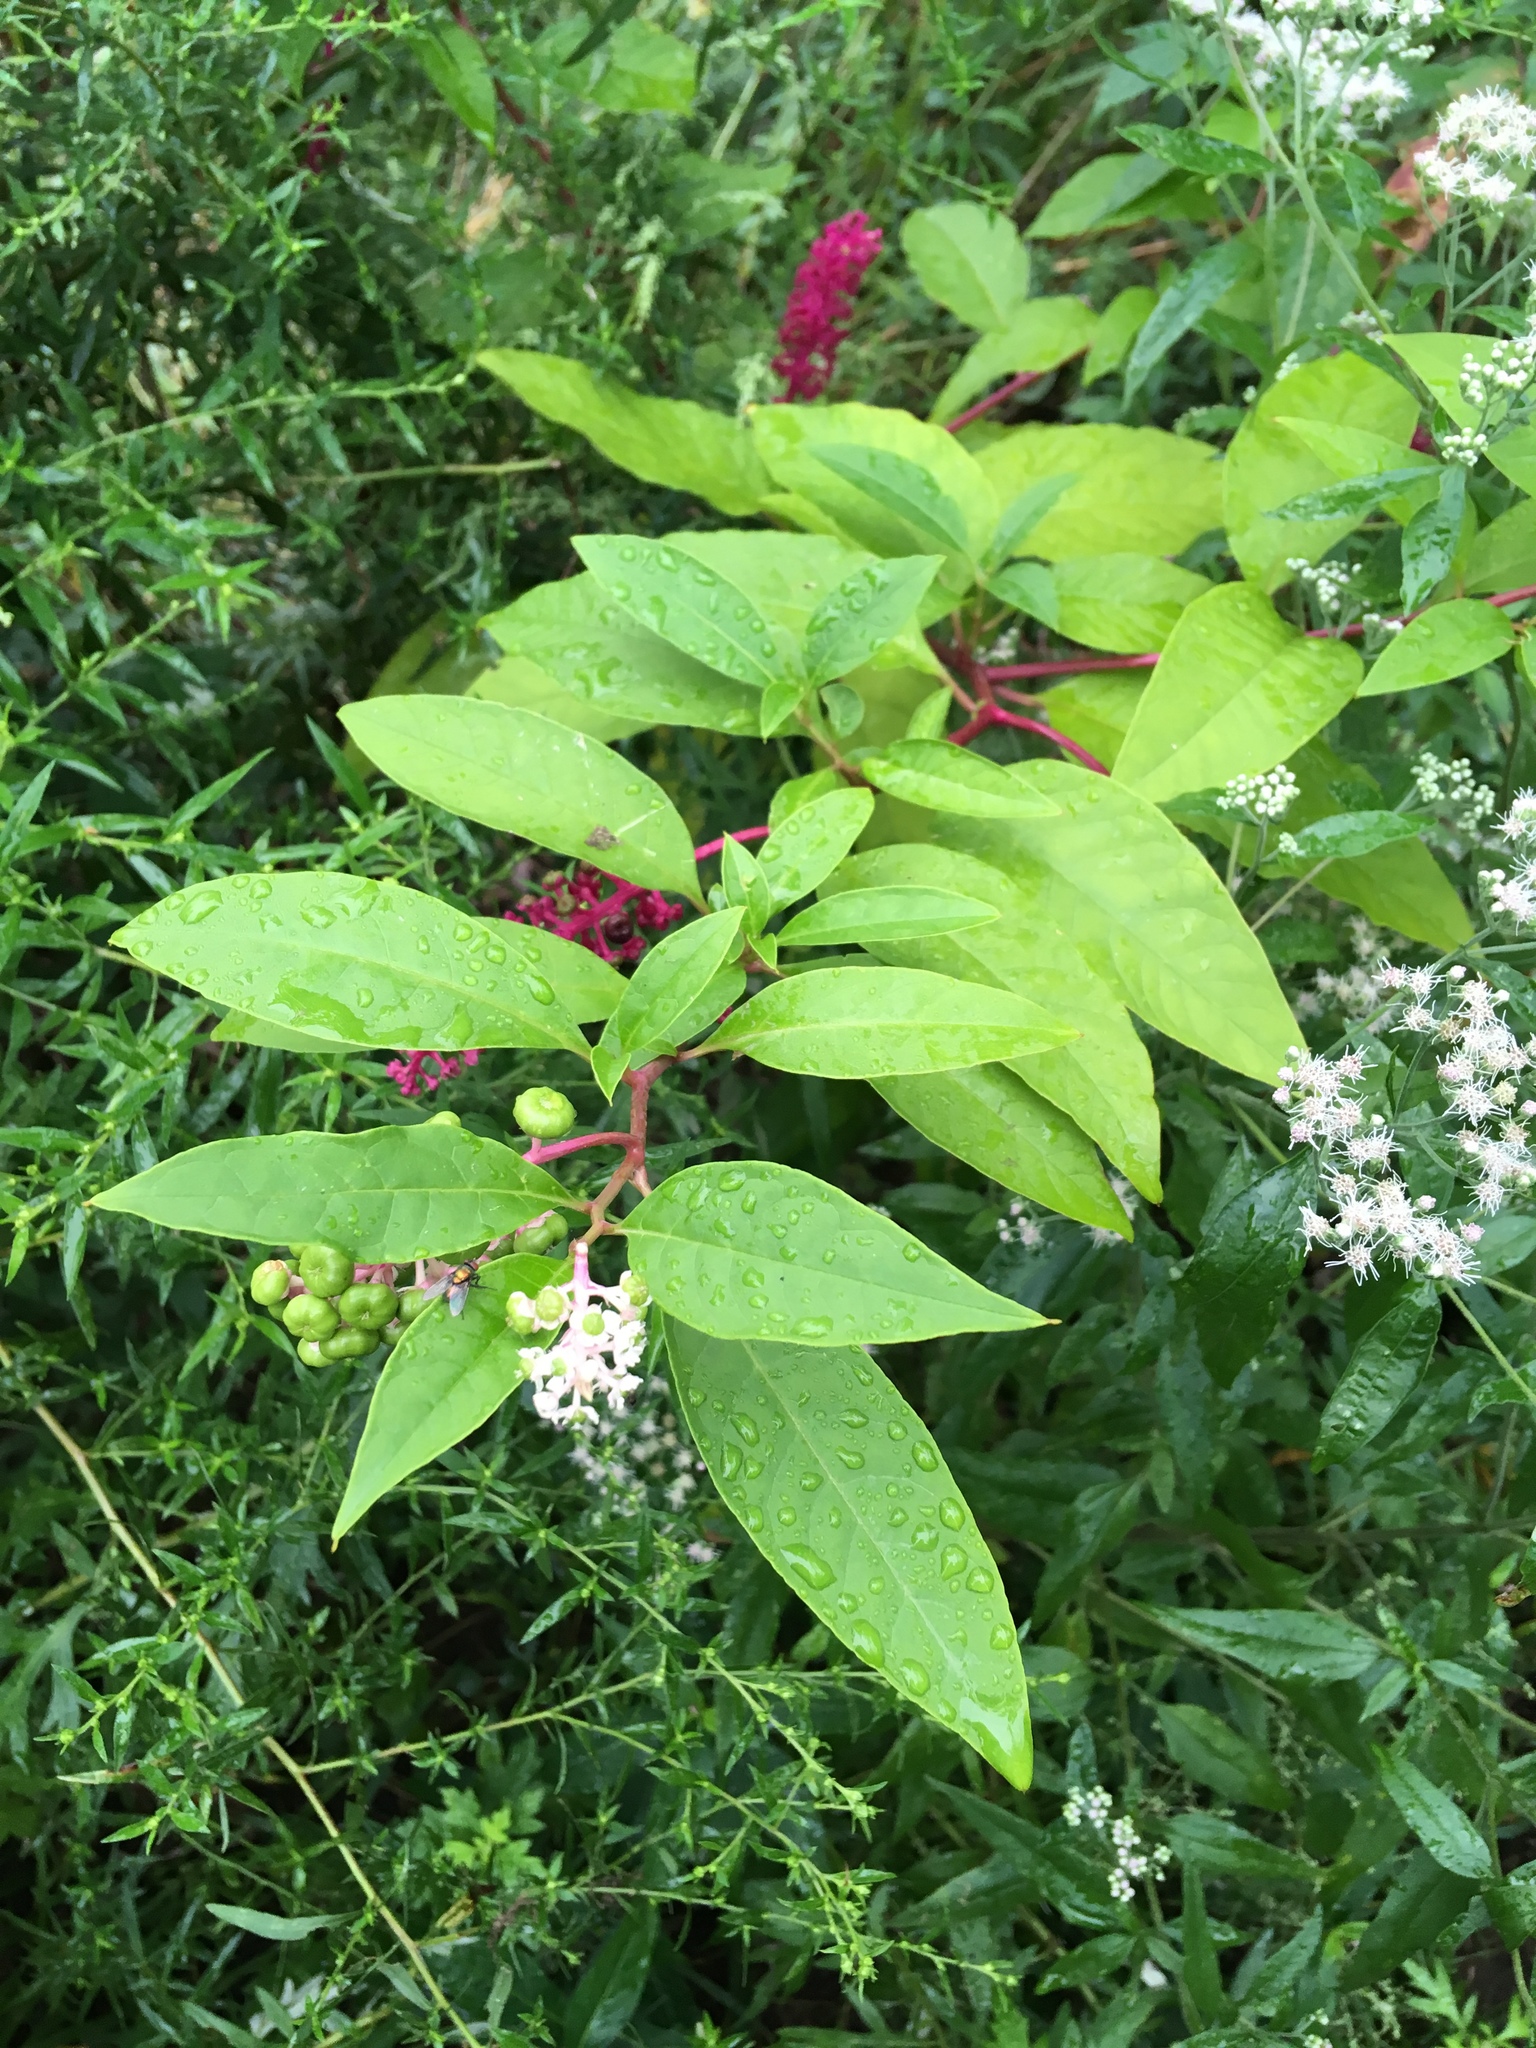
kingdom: Plantae
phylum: Tracheophyta
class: Magnoliopsida
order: Caryophyllales
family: Phytolaccaceae
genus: Phytolacca
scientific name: Phytolacca americana
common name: American pokeweed
